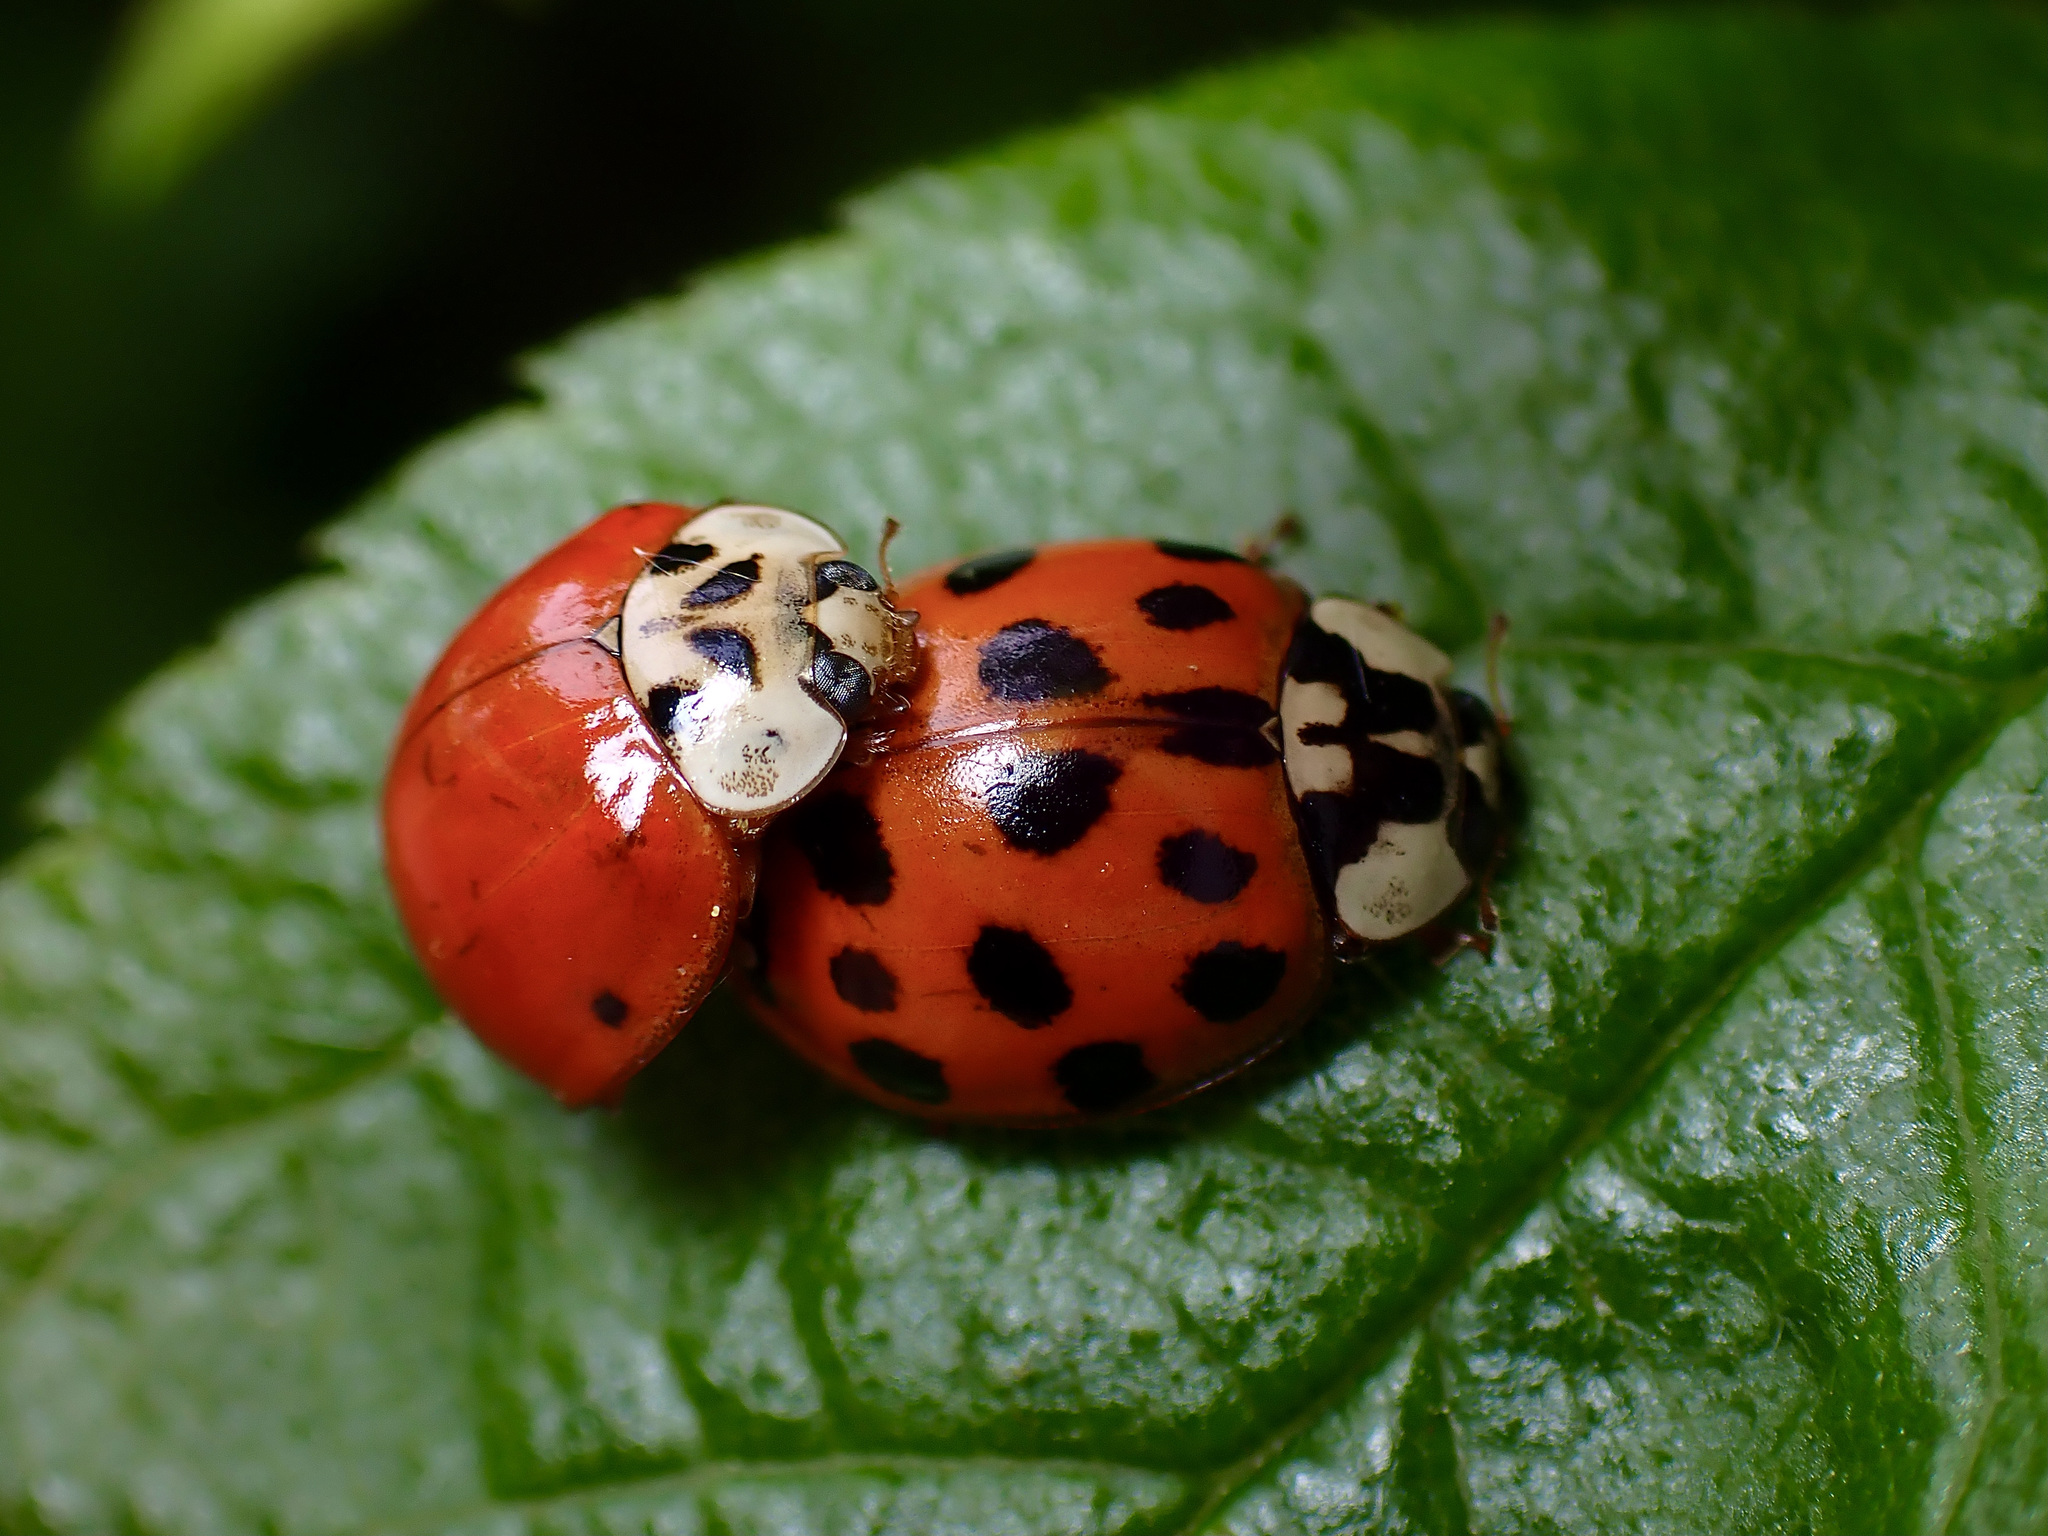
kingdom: Animalia
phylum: Arthropoda
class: Insecta
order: Coleoptera
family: Coccinellidae
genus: Harmonia
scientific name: Harmonia axyridis
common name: Harlequin ladybird
